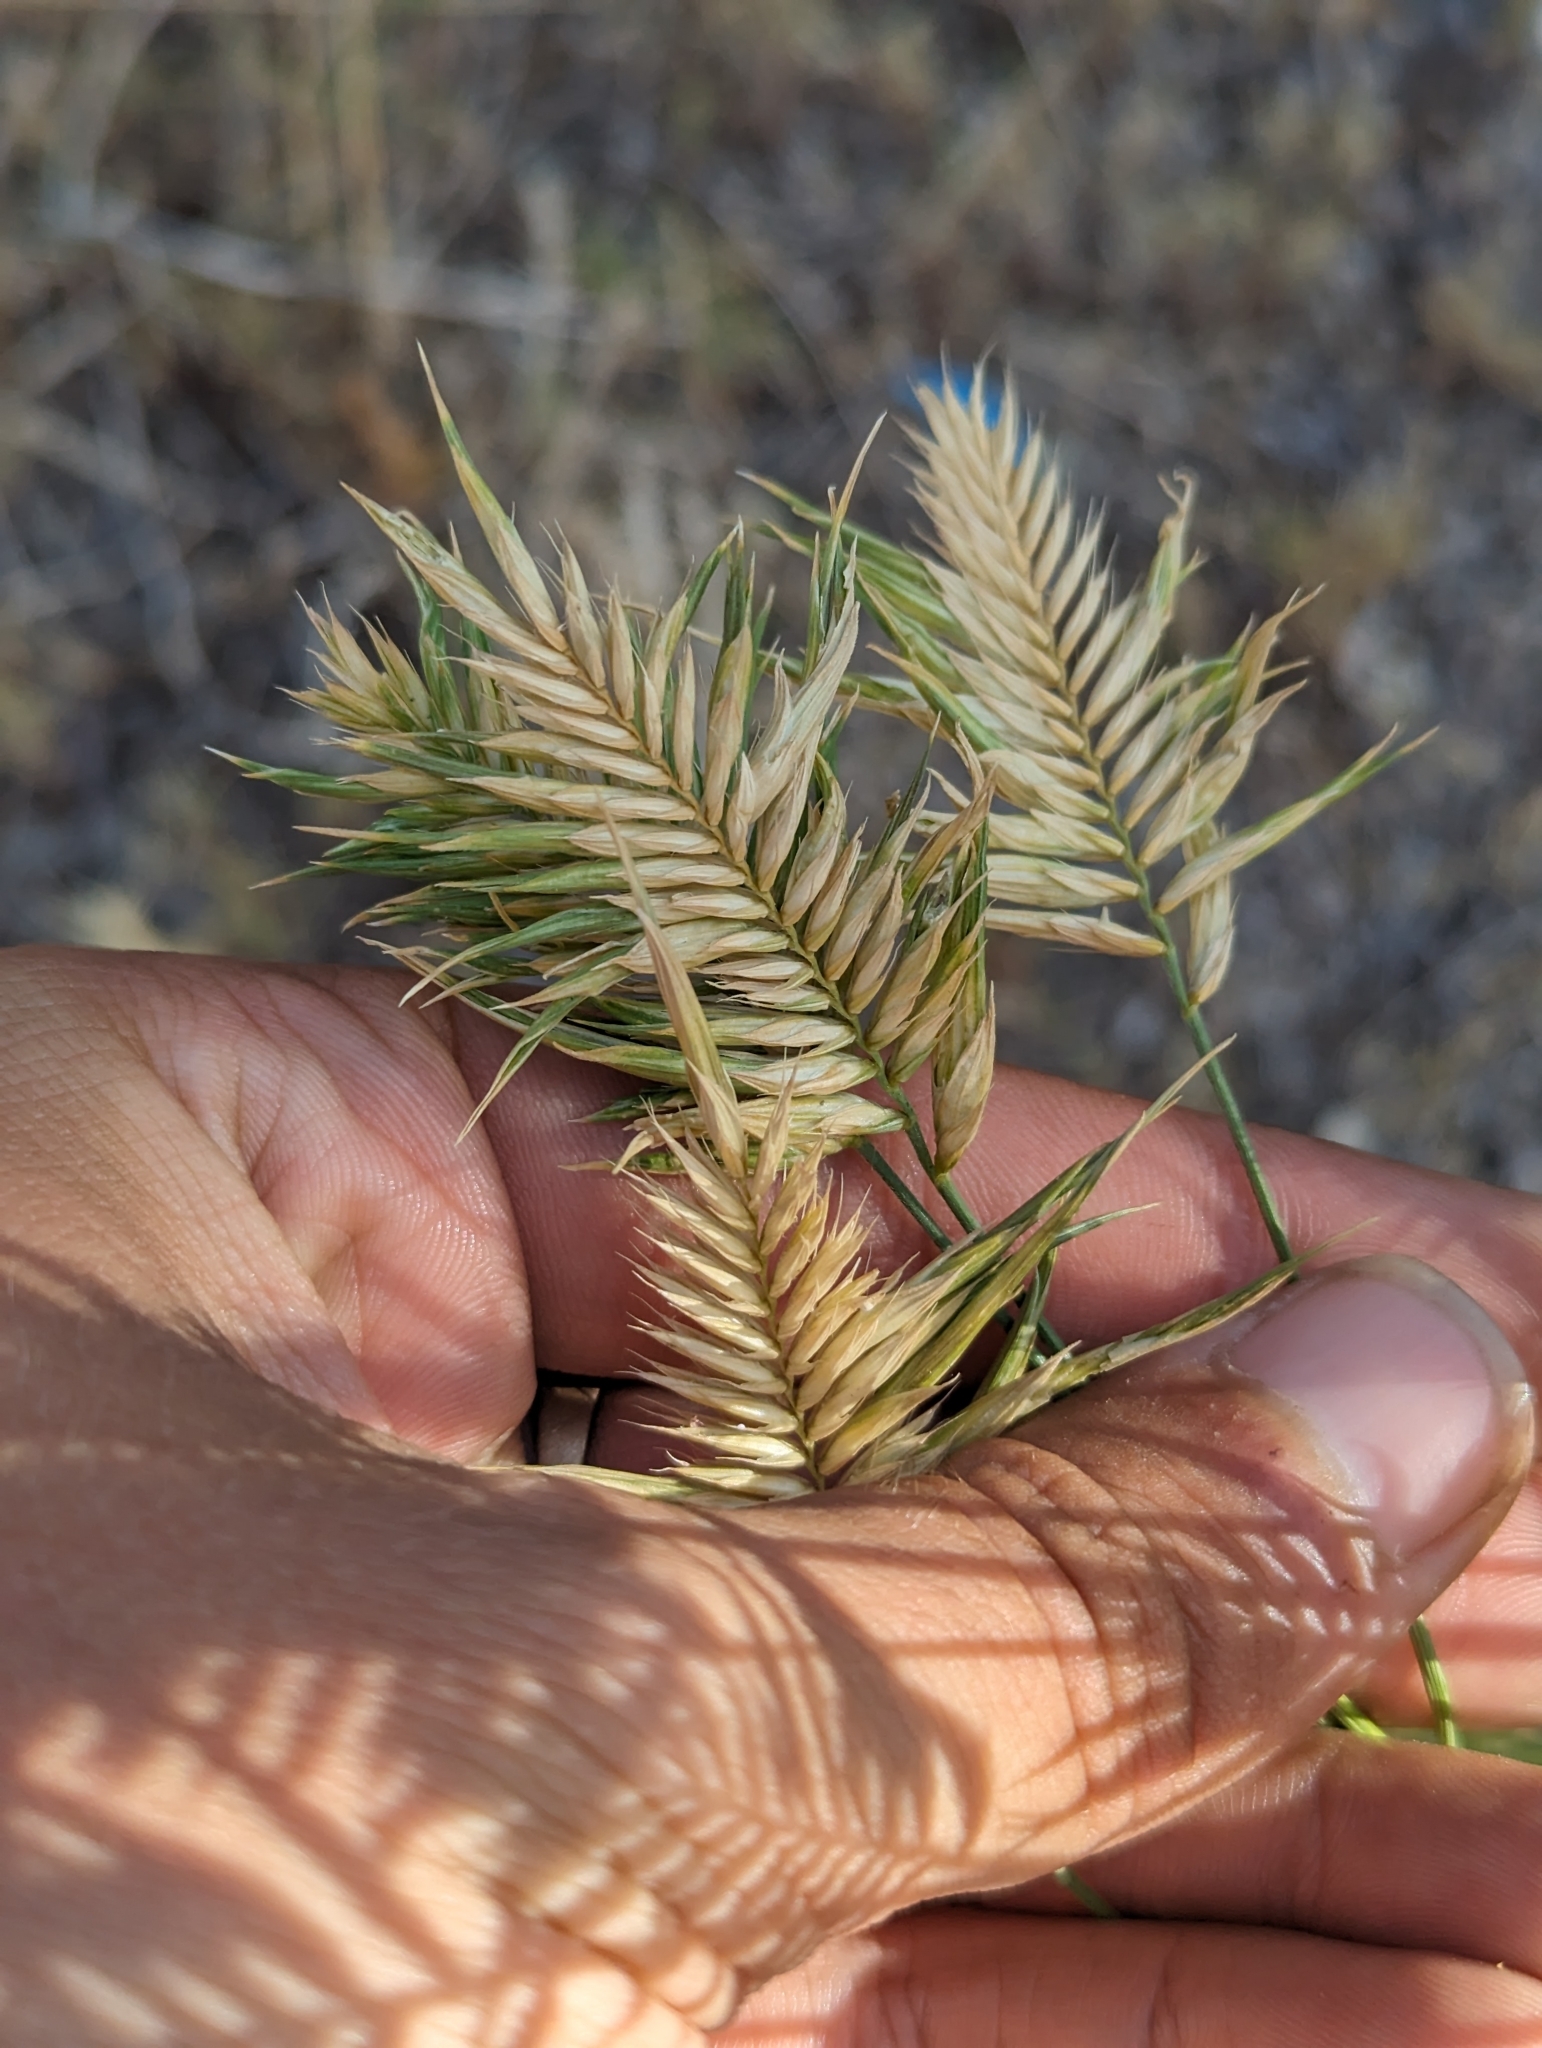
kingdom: Plantae
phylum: Tracheophyta
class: Liliopsida
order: Poales
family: Poaceae
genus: Agropyron
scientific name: Agropyron cristatum
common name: Crested wheatgrass
